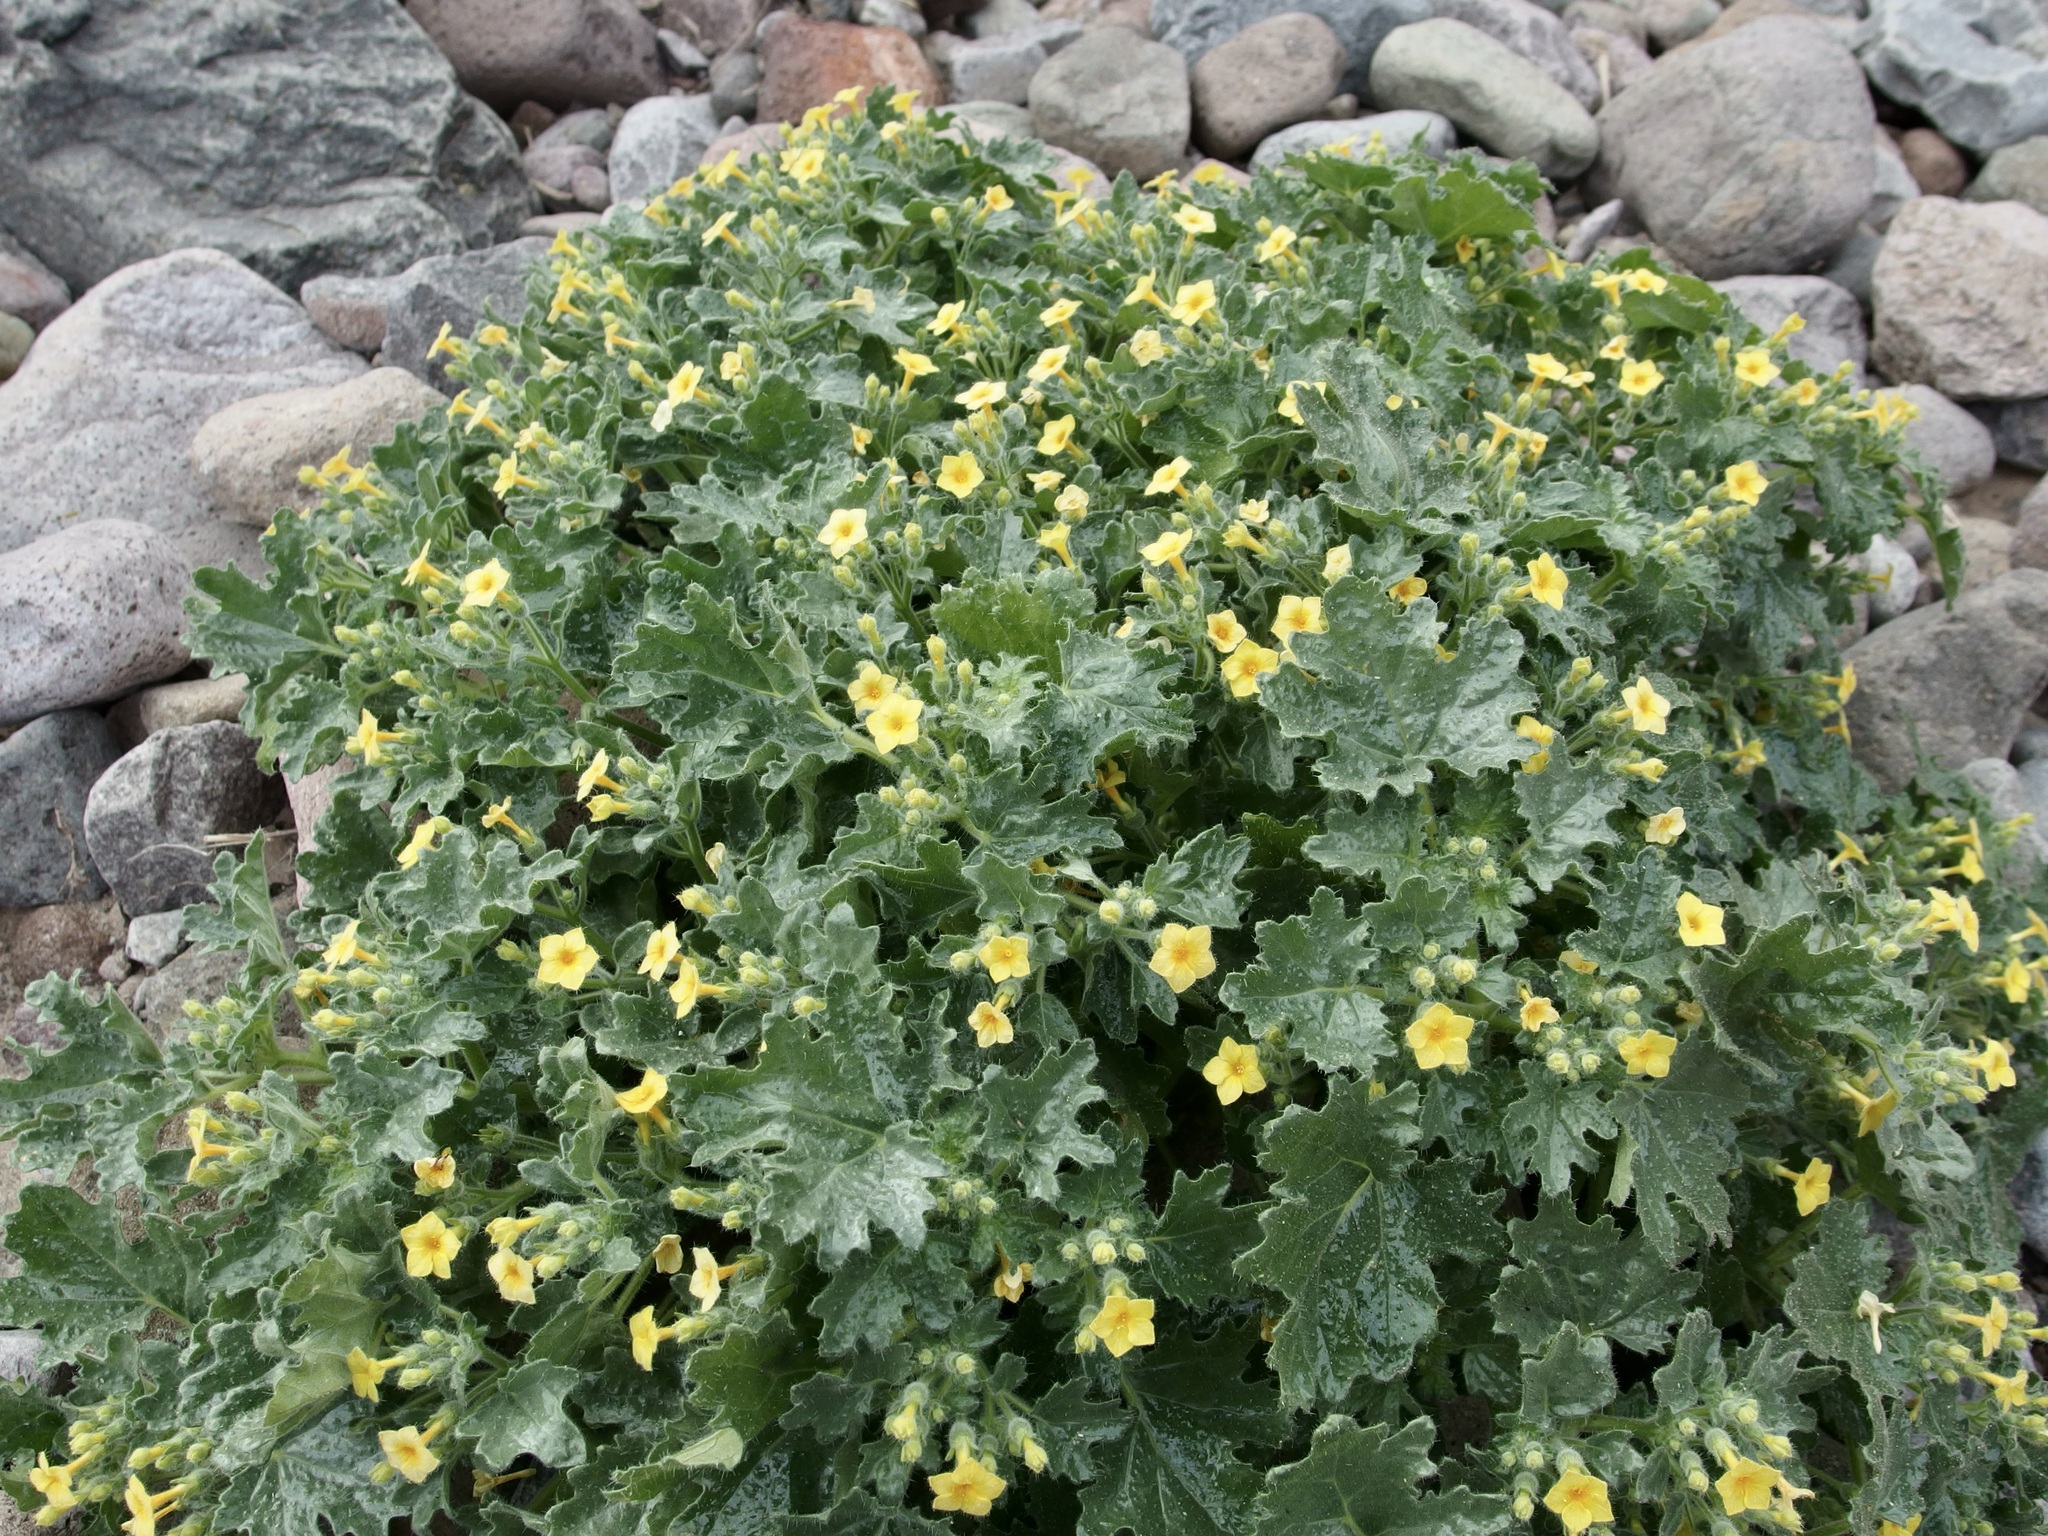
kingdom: Plantae
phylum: Tracheophyta
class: Magnoliopsida
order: Cornales
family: Loasaceae
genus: Eucnide
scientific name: Eucnide aurea
